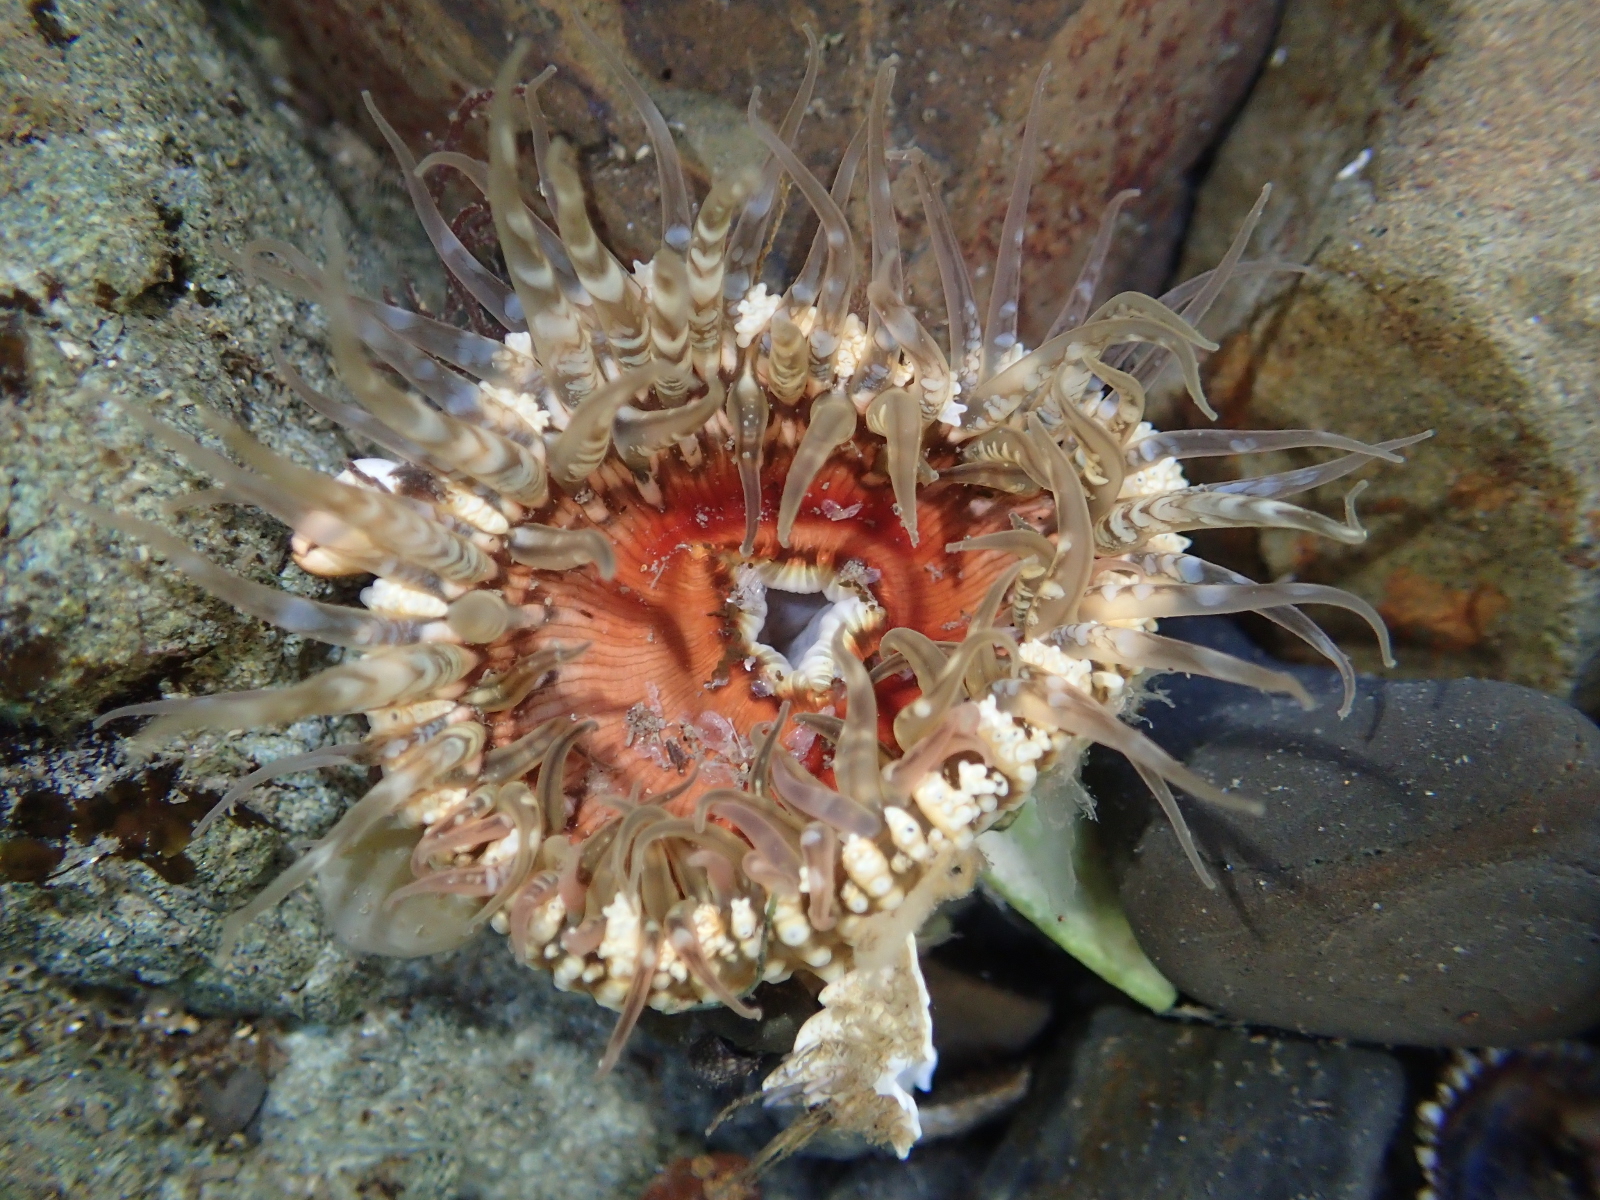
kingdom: Animalia
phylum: Cnidaria
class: Anthozoa
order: Actiniaria
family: Actiniidae
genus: Oulactis
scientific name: Oulactis muscosa
